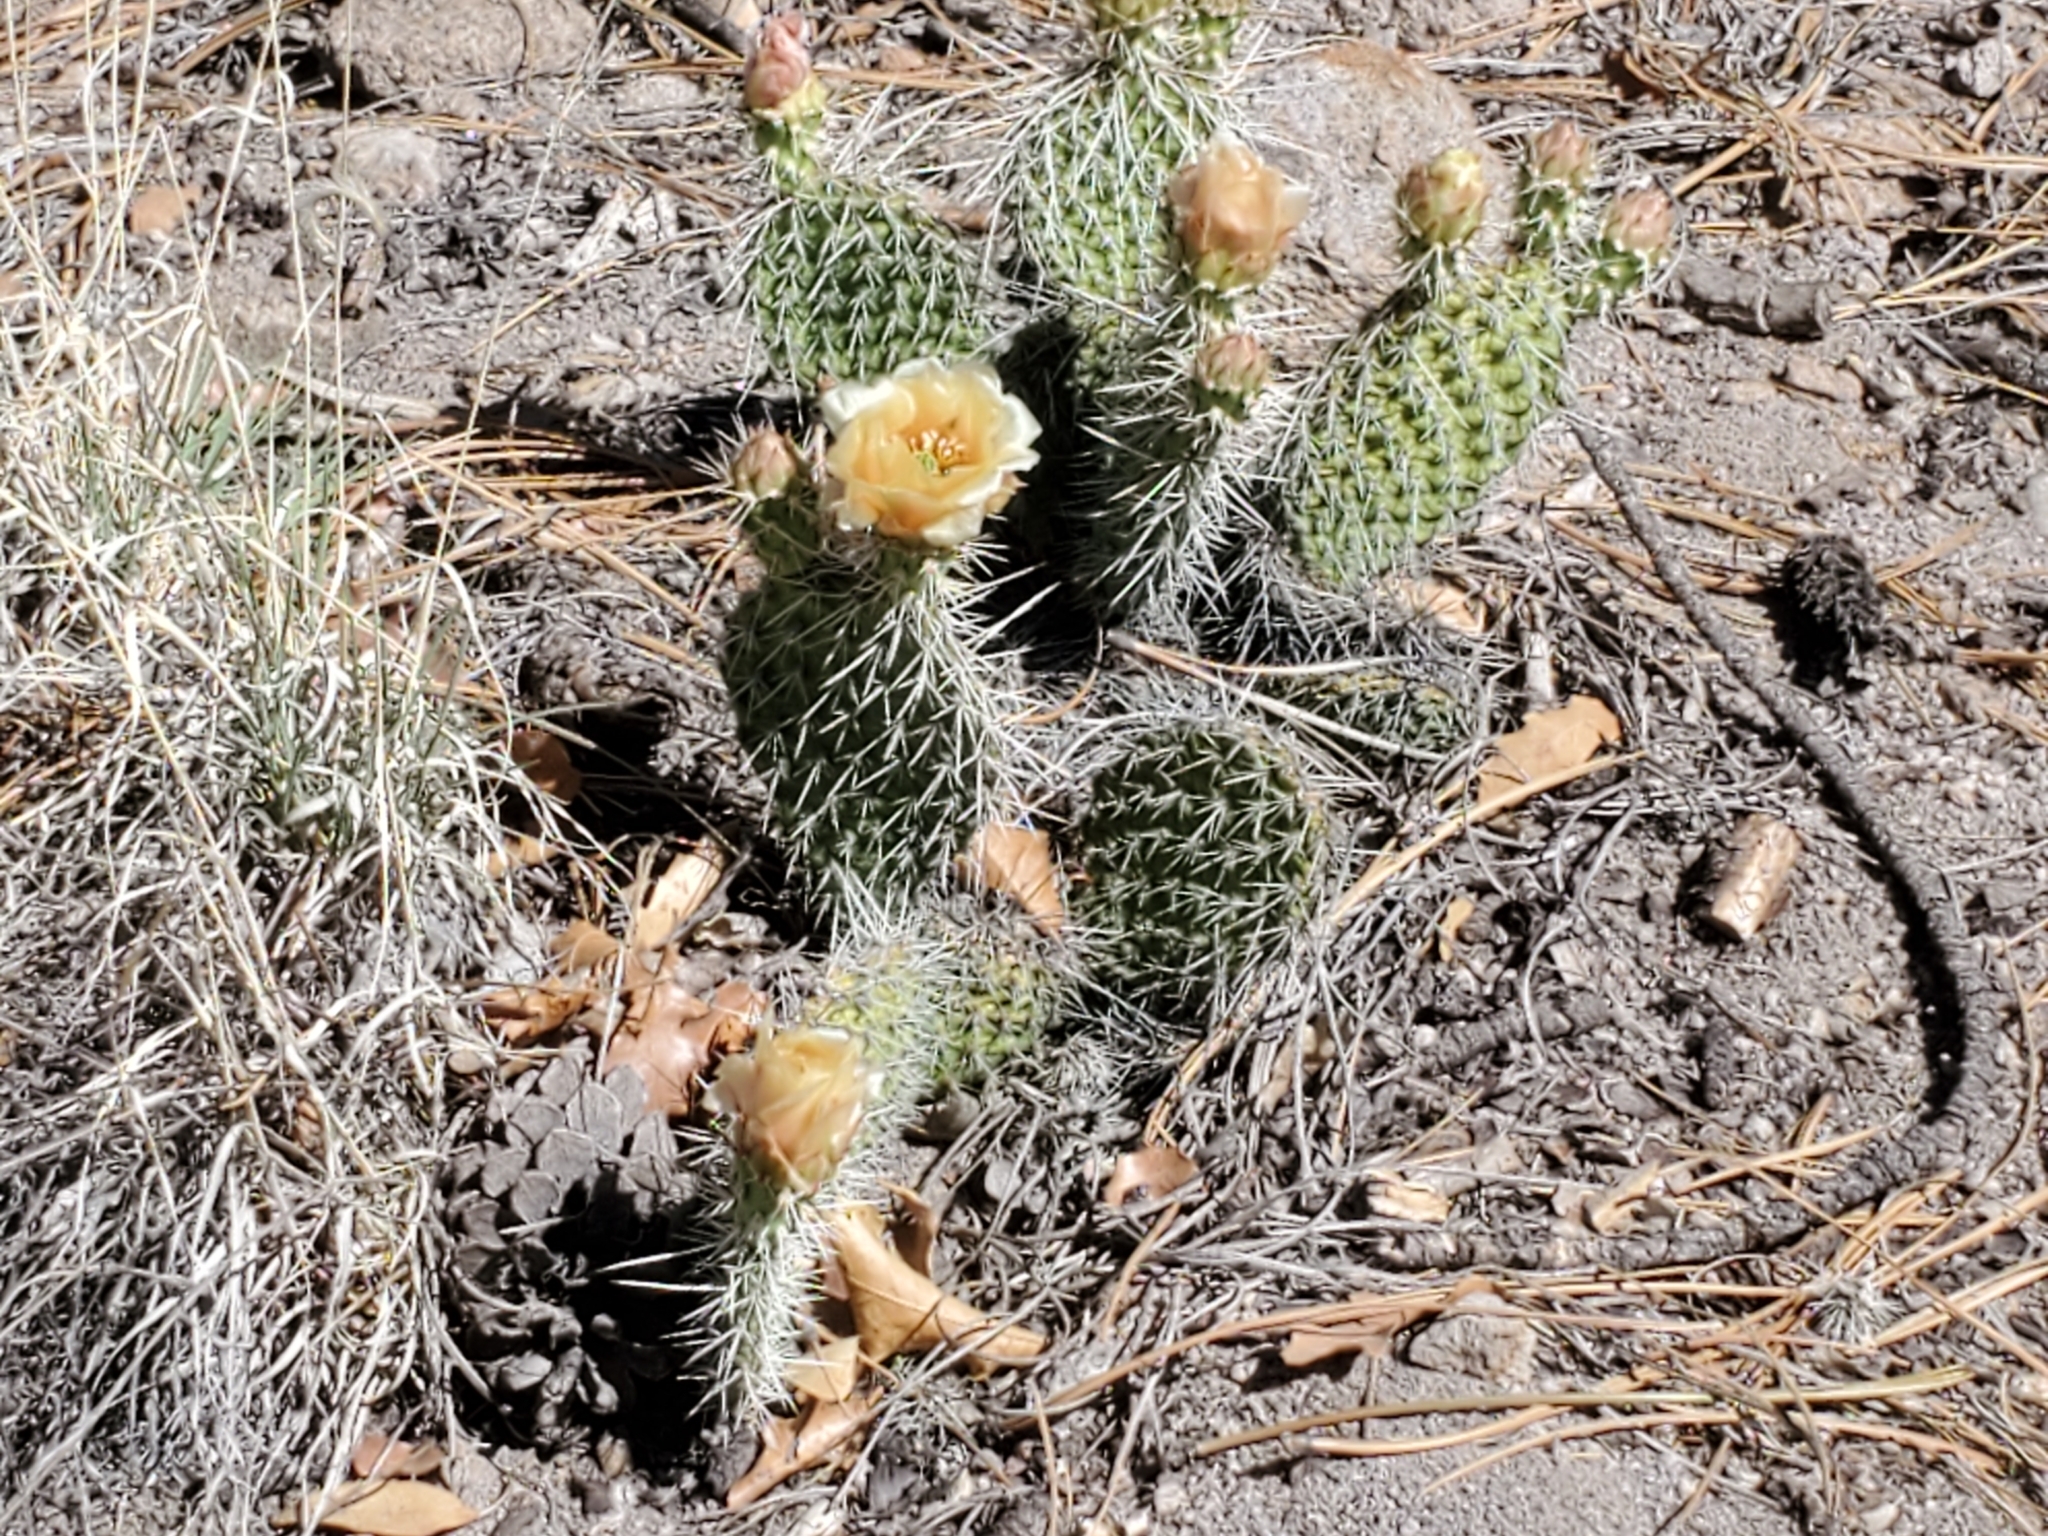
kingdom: Plantae
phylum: Tracheophyta
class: Magnoliopsida
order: Caryophyllales
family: Cactaceae
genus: Opuntia
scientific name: Opuntia polyacantha
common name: Plains prickly-pear
